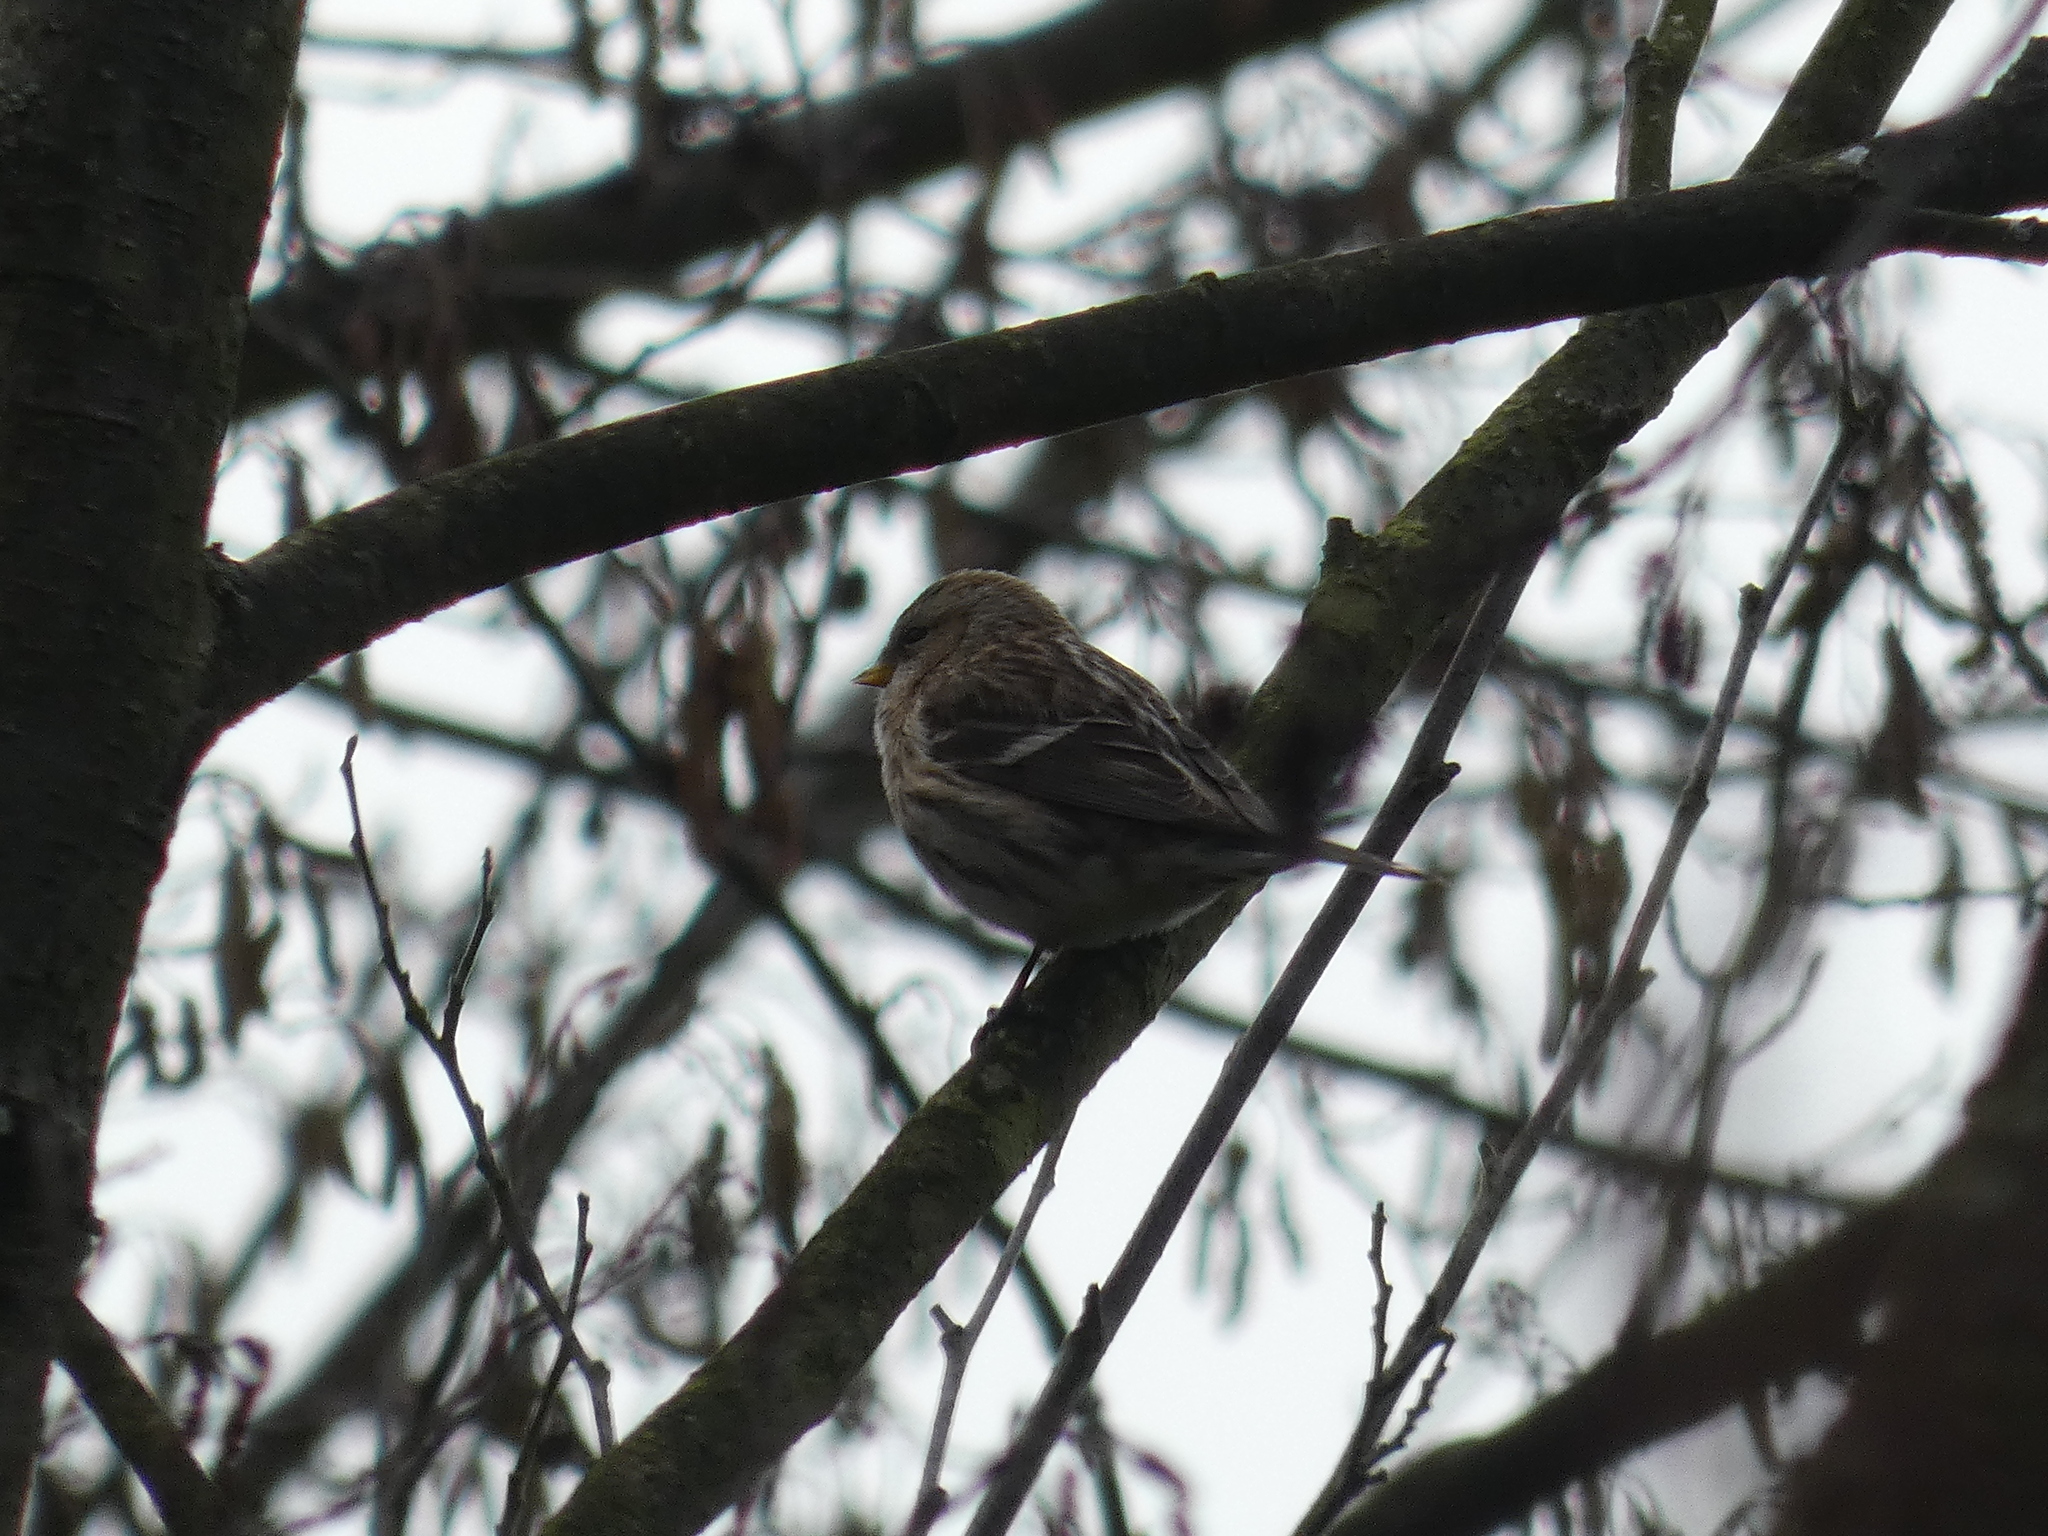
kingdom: Animalia
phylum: Chordata
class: Aves
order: Passeriformes
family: Fringillidae
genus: Acanthis
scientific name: Acanthis flammea
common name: Common redpoll
